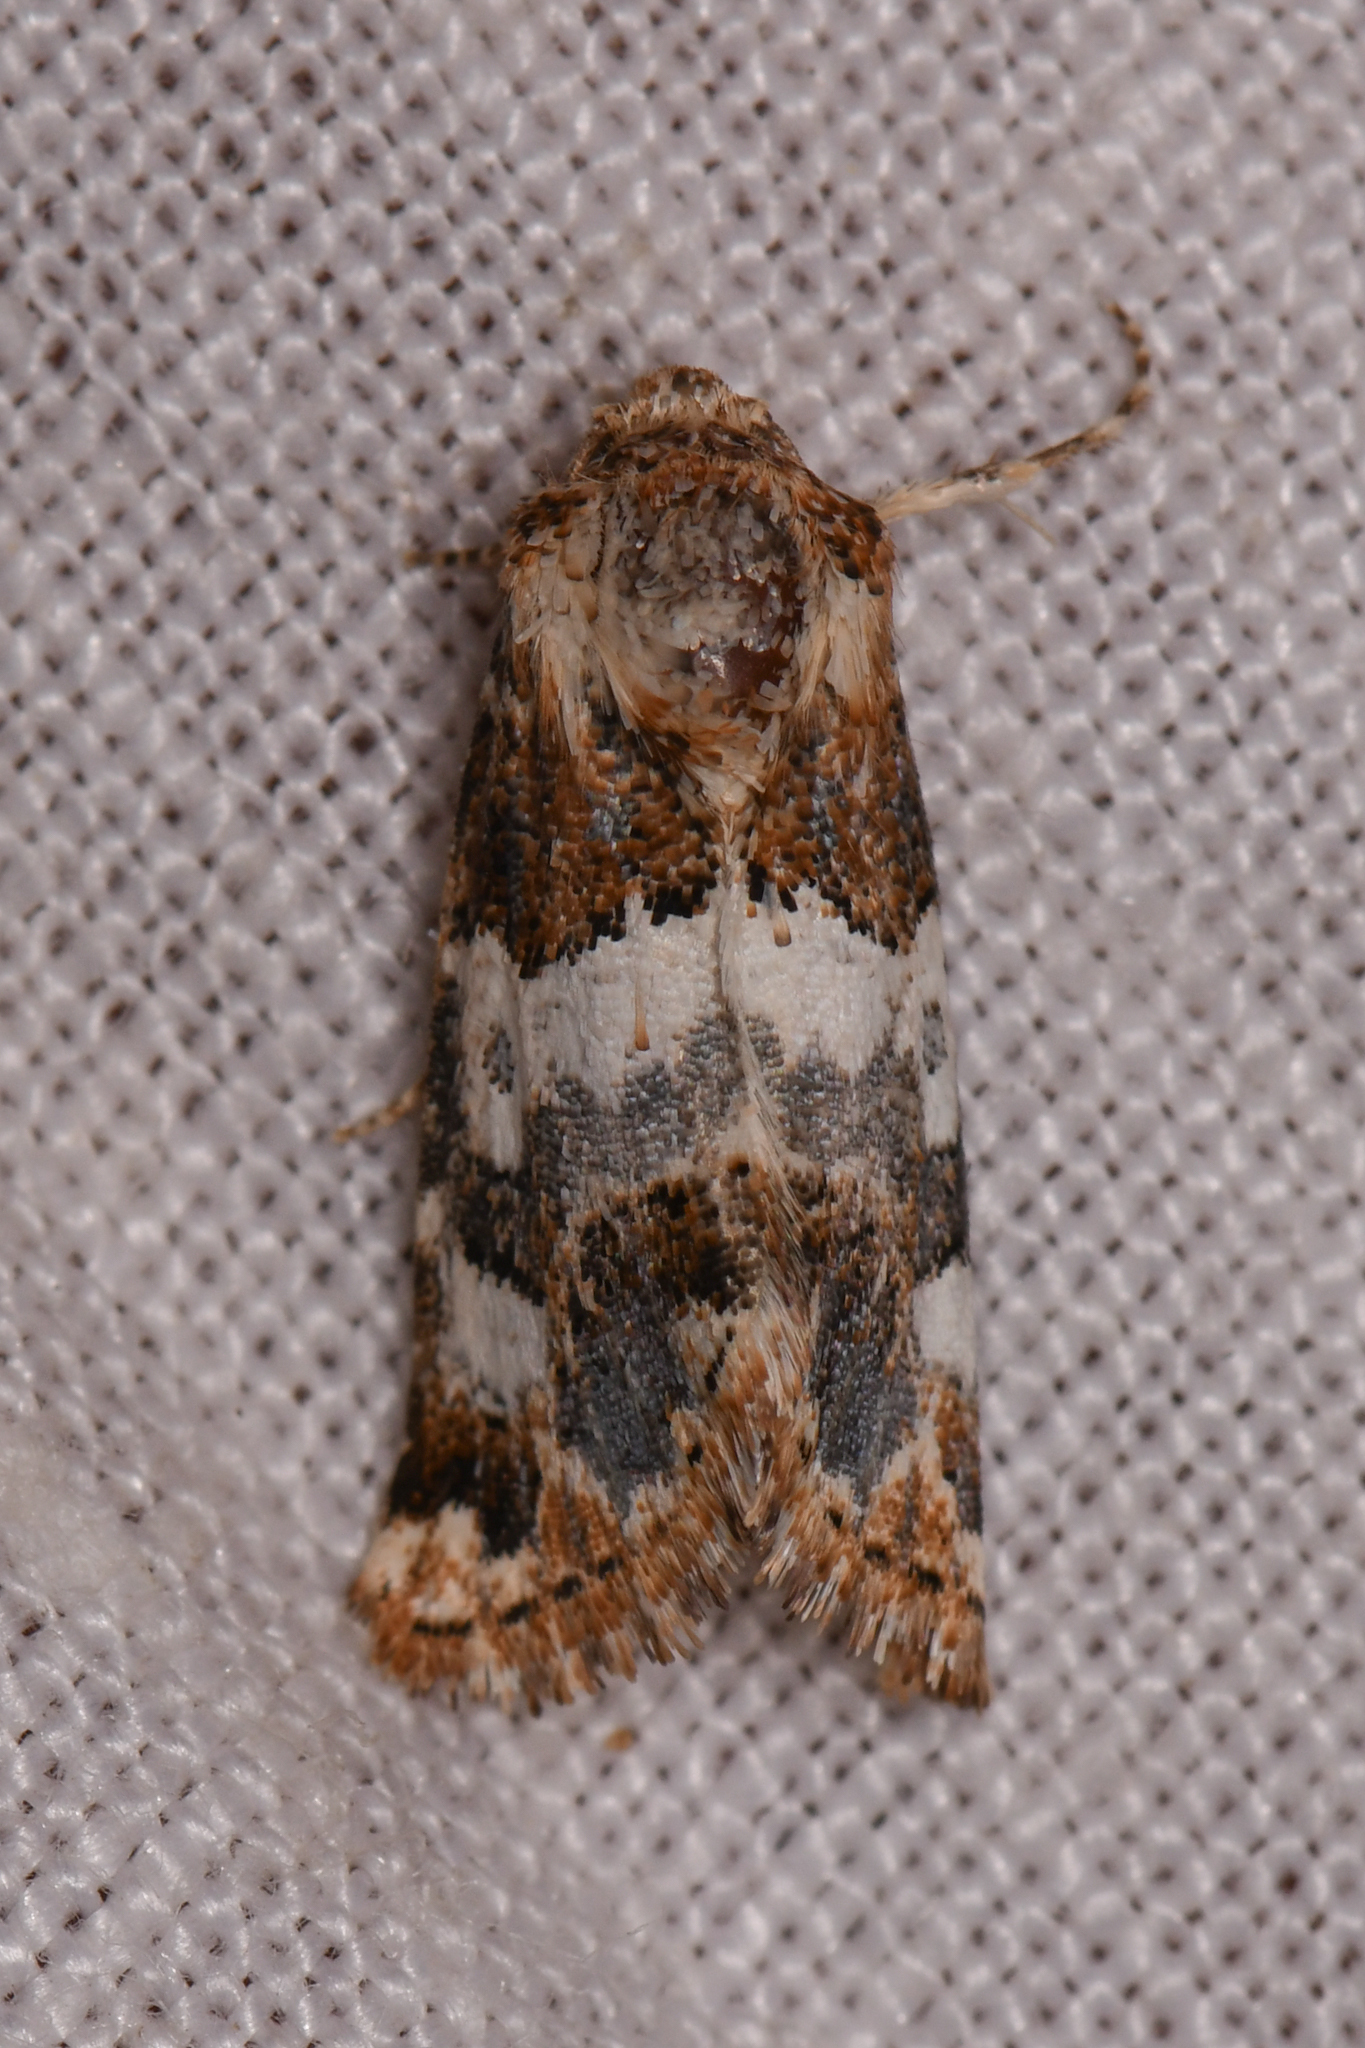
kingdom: Animalia
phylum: Arthropoda
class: Insecta
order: Lepidoptera
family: Noctuidae
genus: Schinia
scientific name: Schinia albafascia
